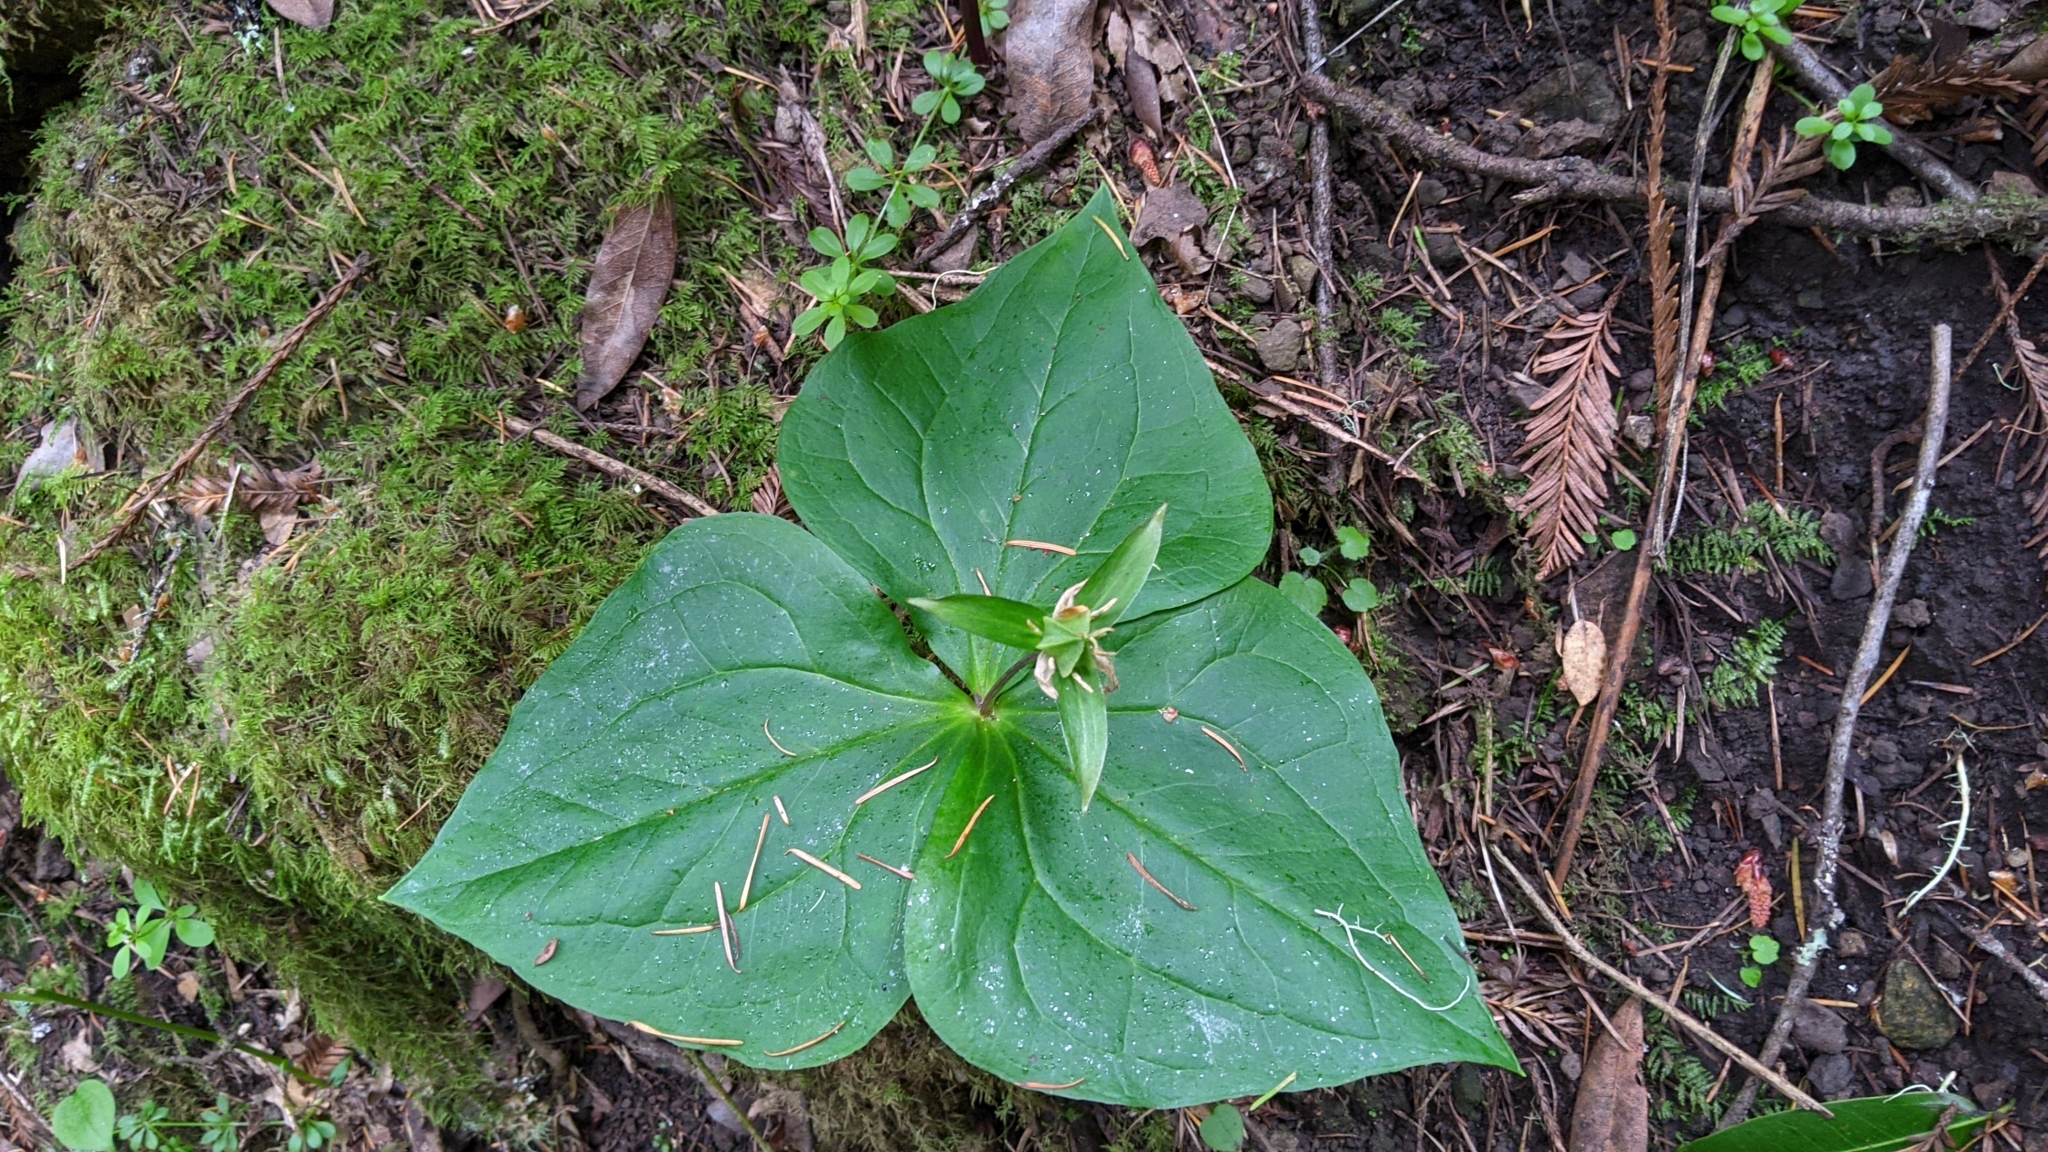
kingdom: Plantae
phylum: Tracheophyta
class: Liliopsida
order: Liliales
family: Melanthiaceae
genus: Trillium
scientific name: Trillium ovatum
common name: Pacific trillium
